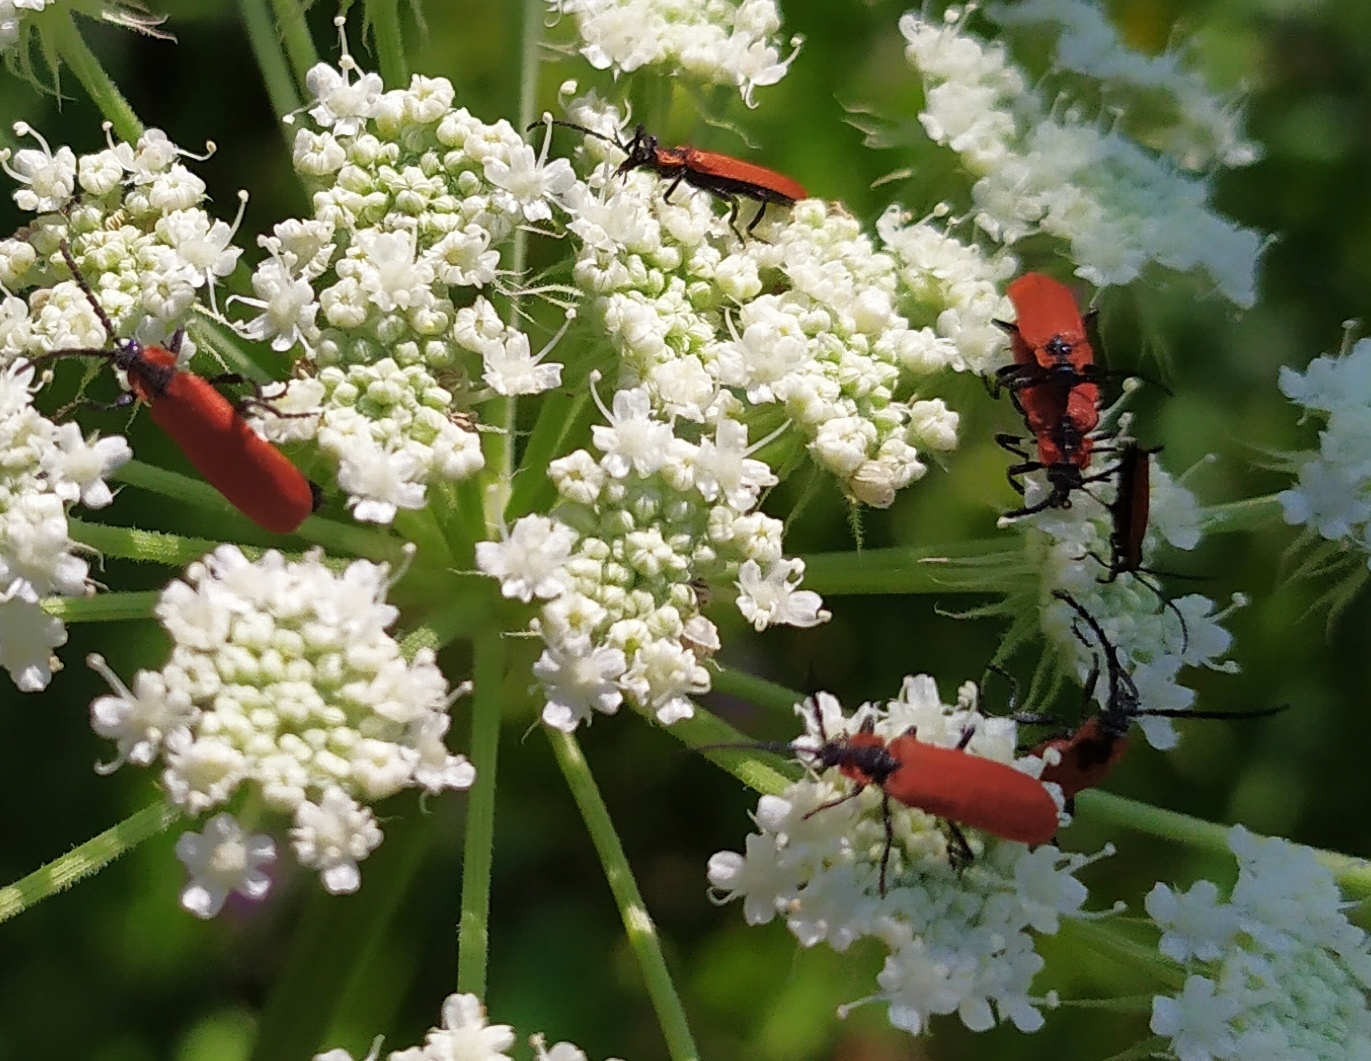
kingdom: Animalia
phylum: Arthropoda
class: Insecta
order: Coleoptera
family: Lycidae
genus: Lygistopterus
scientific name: Lygistopterus sanguineus
